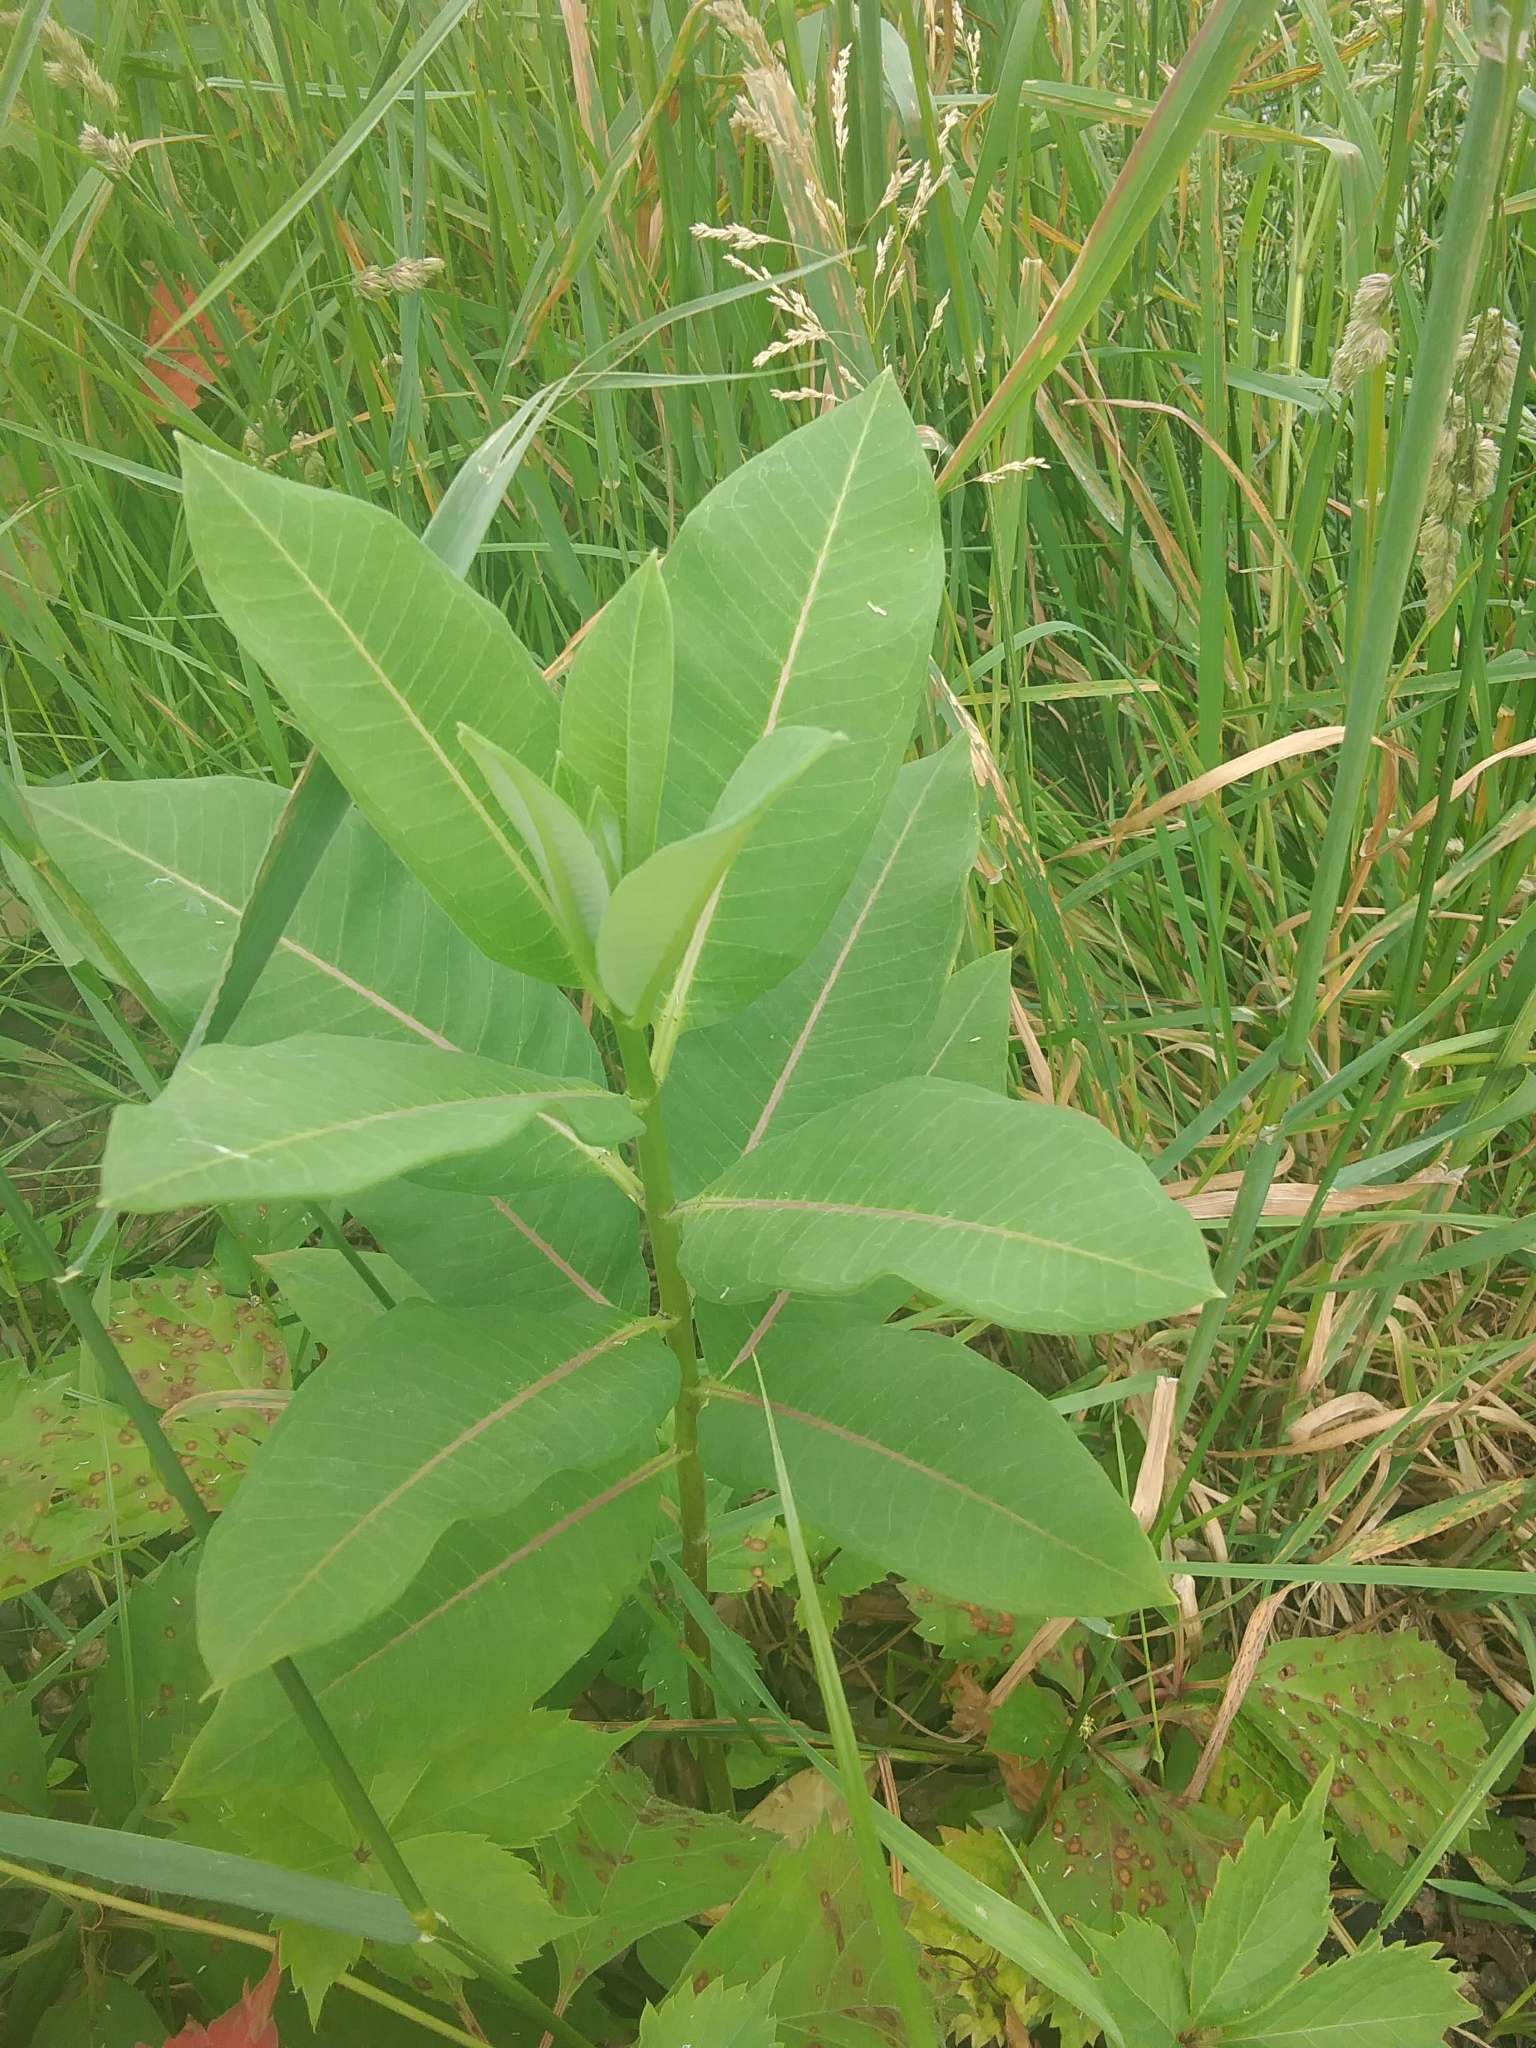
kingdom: Plantae
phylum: Tracheophyta
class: Magnoliopsida
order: Gentianales
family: Apocynaceae
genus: Asclepias
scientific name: Asclepias syriaca
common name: Common milkweed
